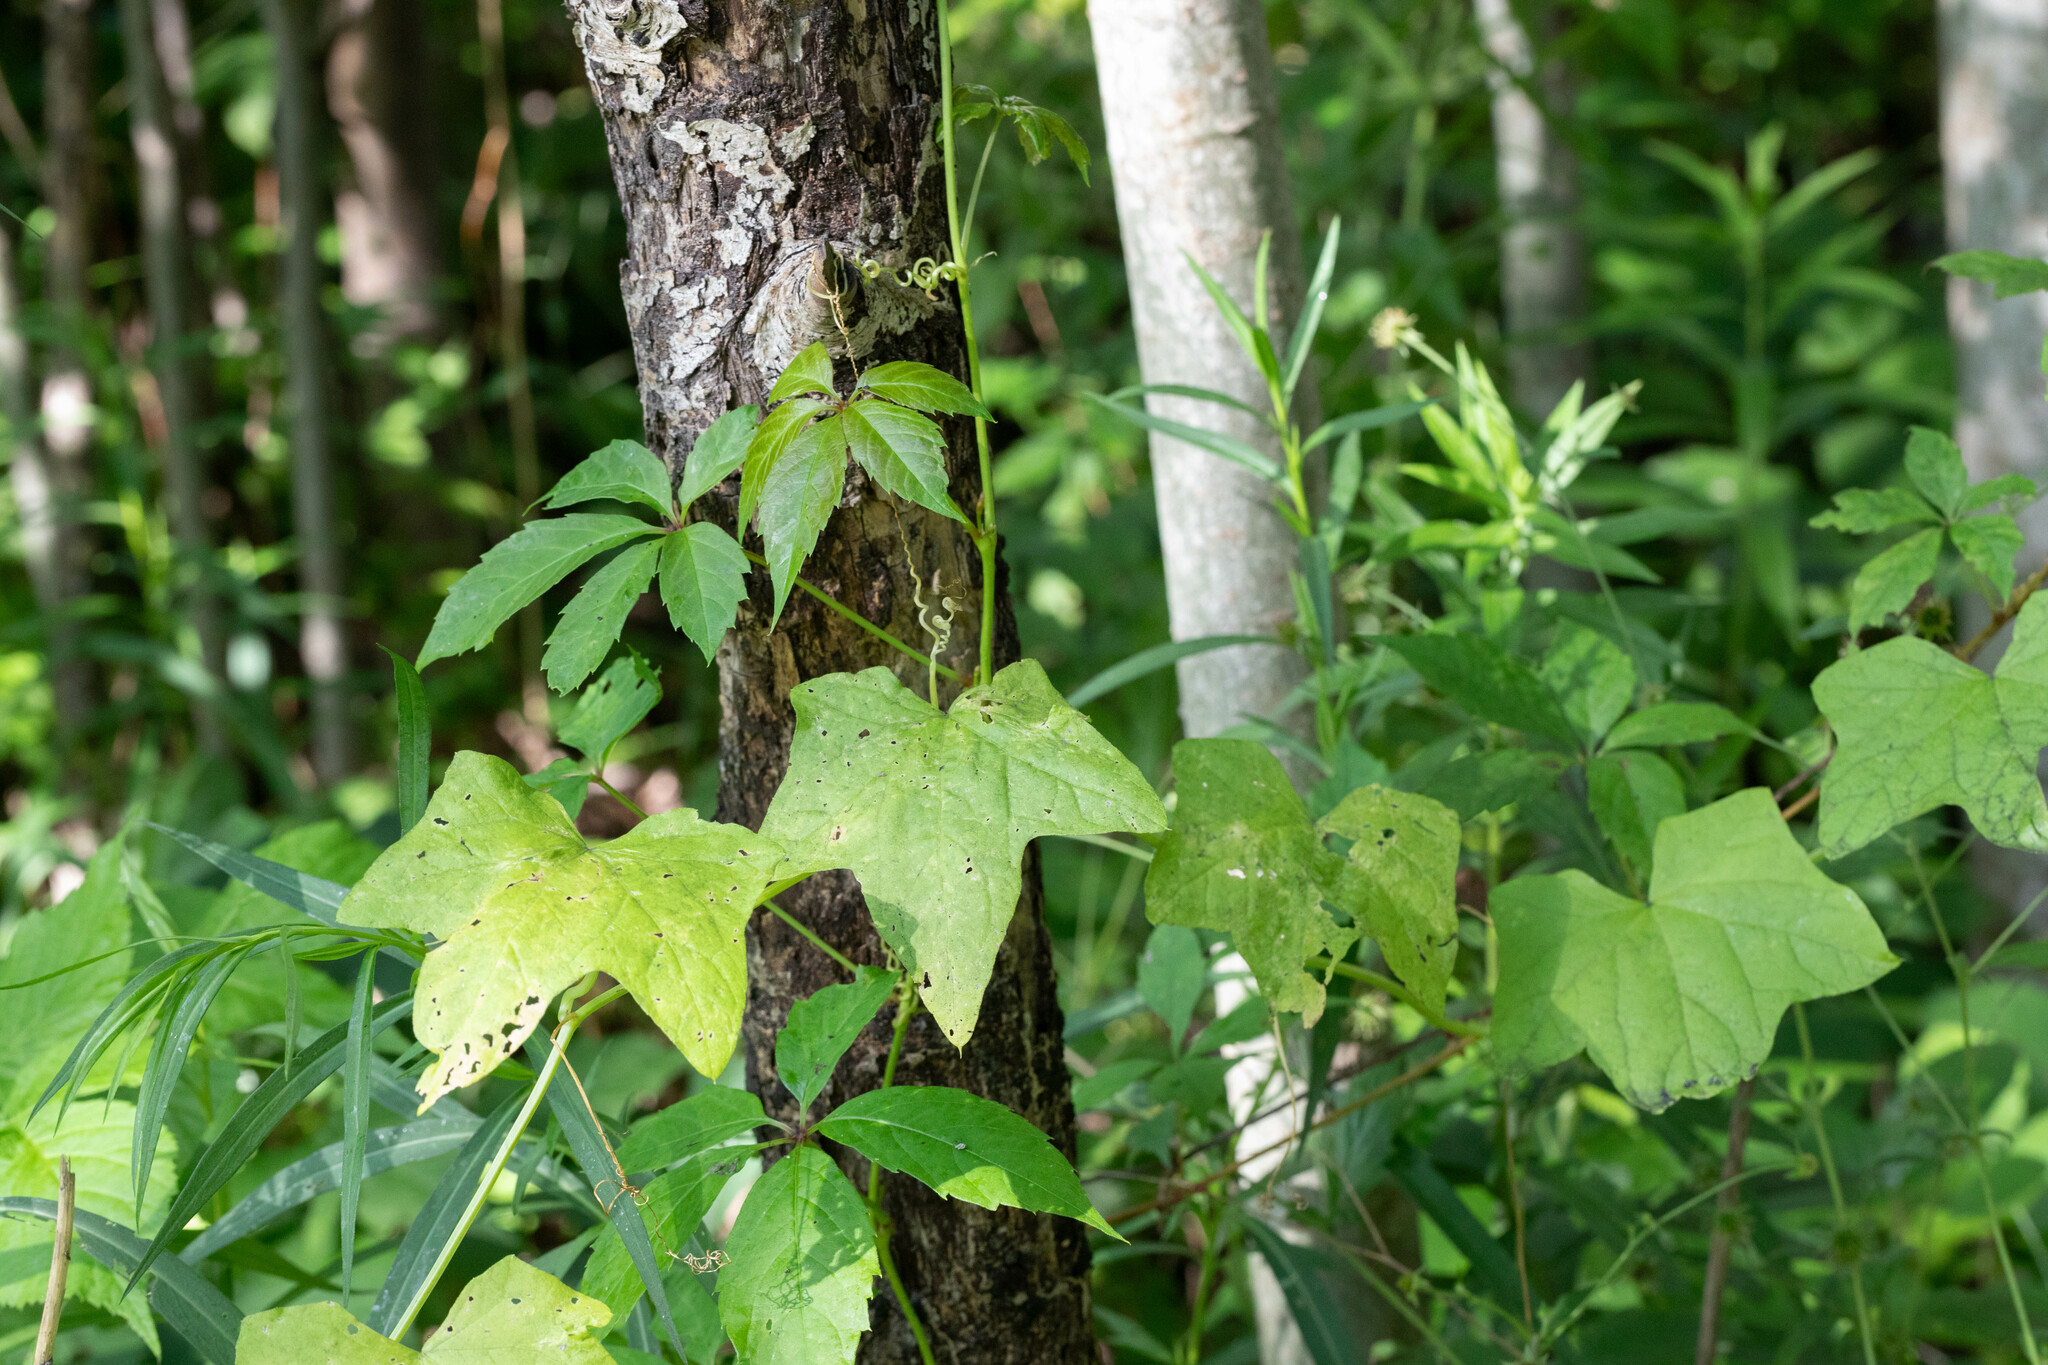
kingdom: Plantae
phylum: Tracheophyta
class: Magnoliopsida
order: Cucurbitales
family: Cucurbitaceae
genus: Echinocystis
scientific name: Echinocystis lobata
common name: Wild cucumber
